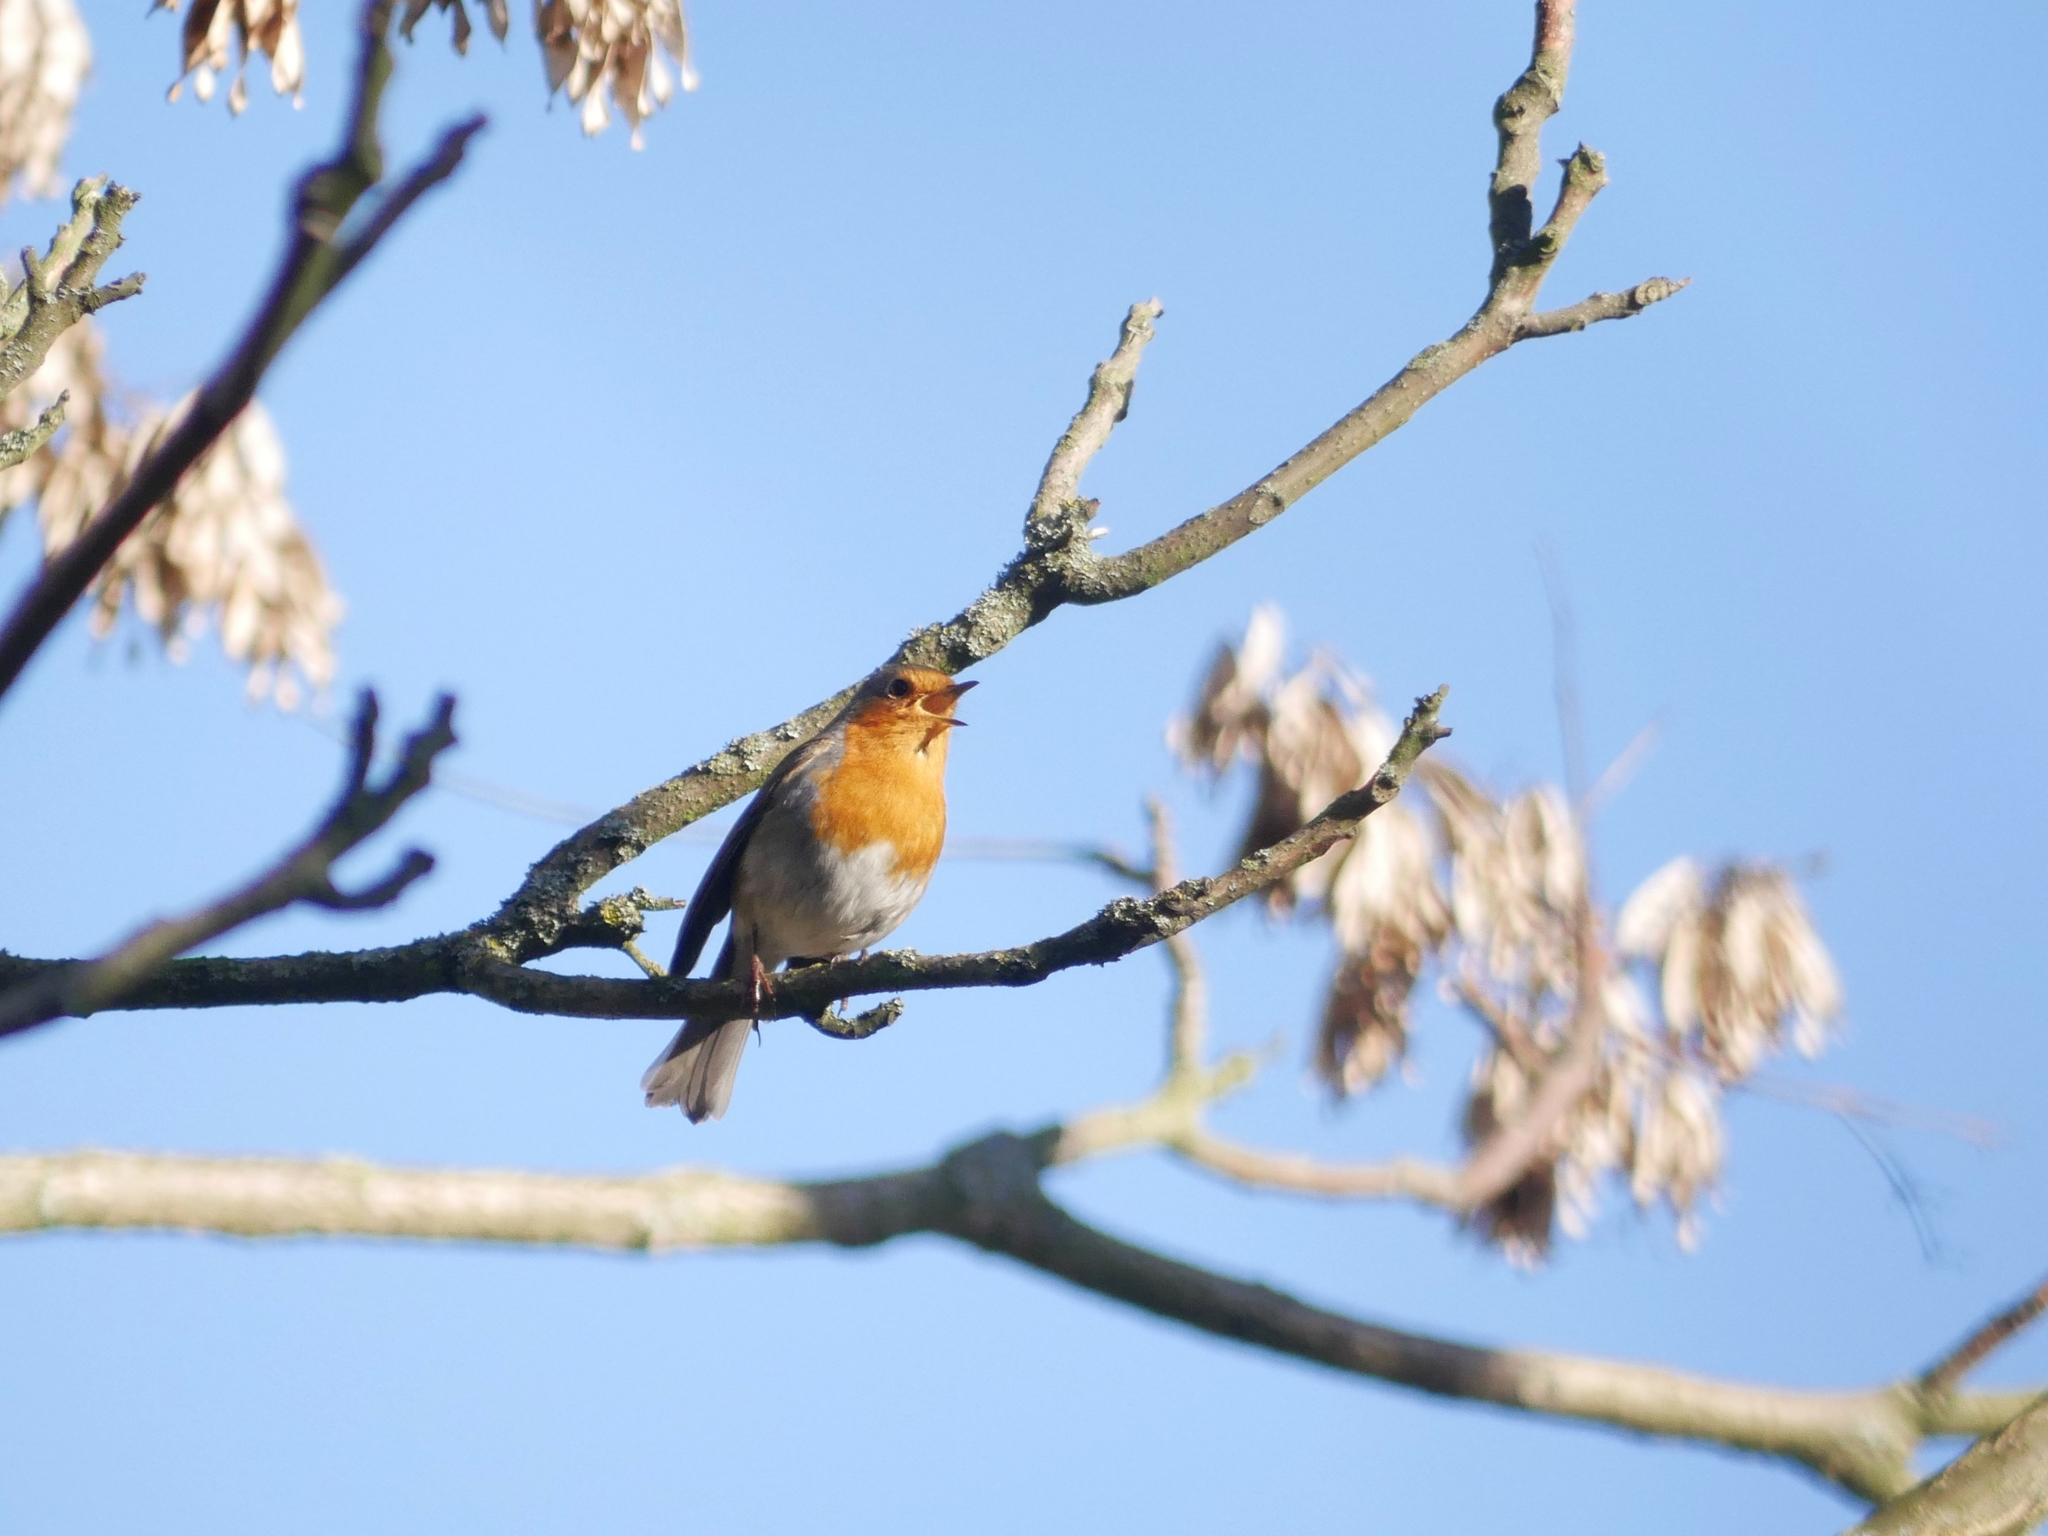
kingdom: Animalia
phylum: Chordata
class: Aves
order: Passeriformes
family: Muscicapidae
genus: Erithacus
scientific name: Erithacus rubecula
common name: European robin
